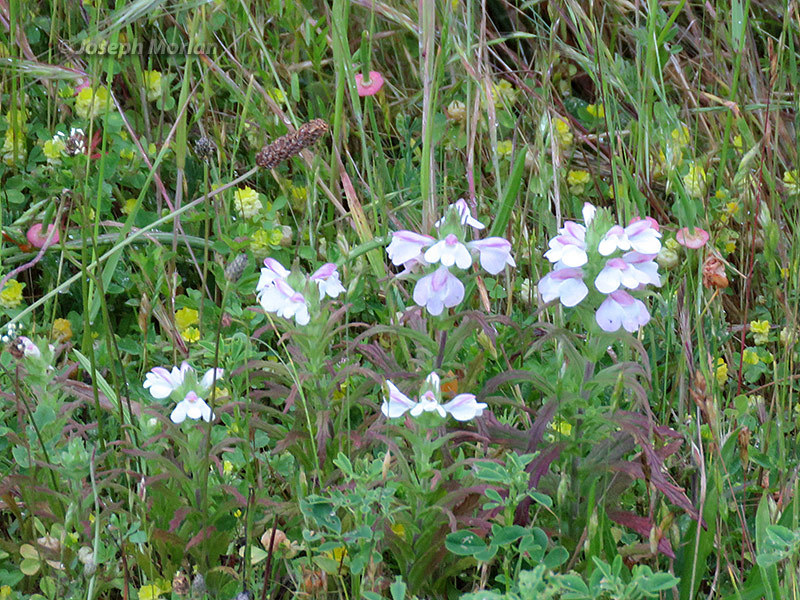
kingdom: Plantae
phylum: Tracheophyta
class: Magnoliopsida
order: Lamiales
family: Orobanchaceae
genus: Bellardia
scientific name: Bellardia trixago
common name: Mediterranean lineseed
